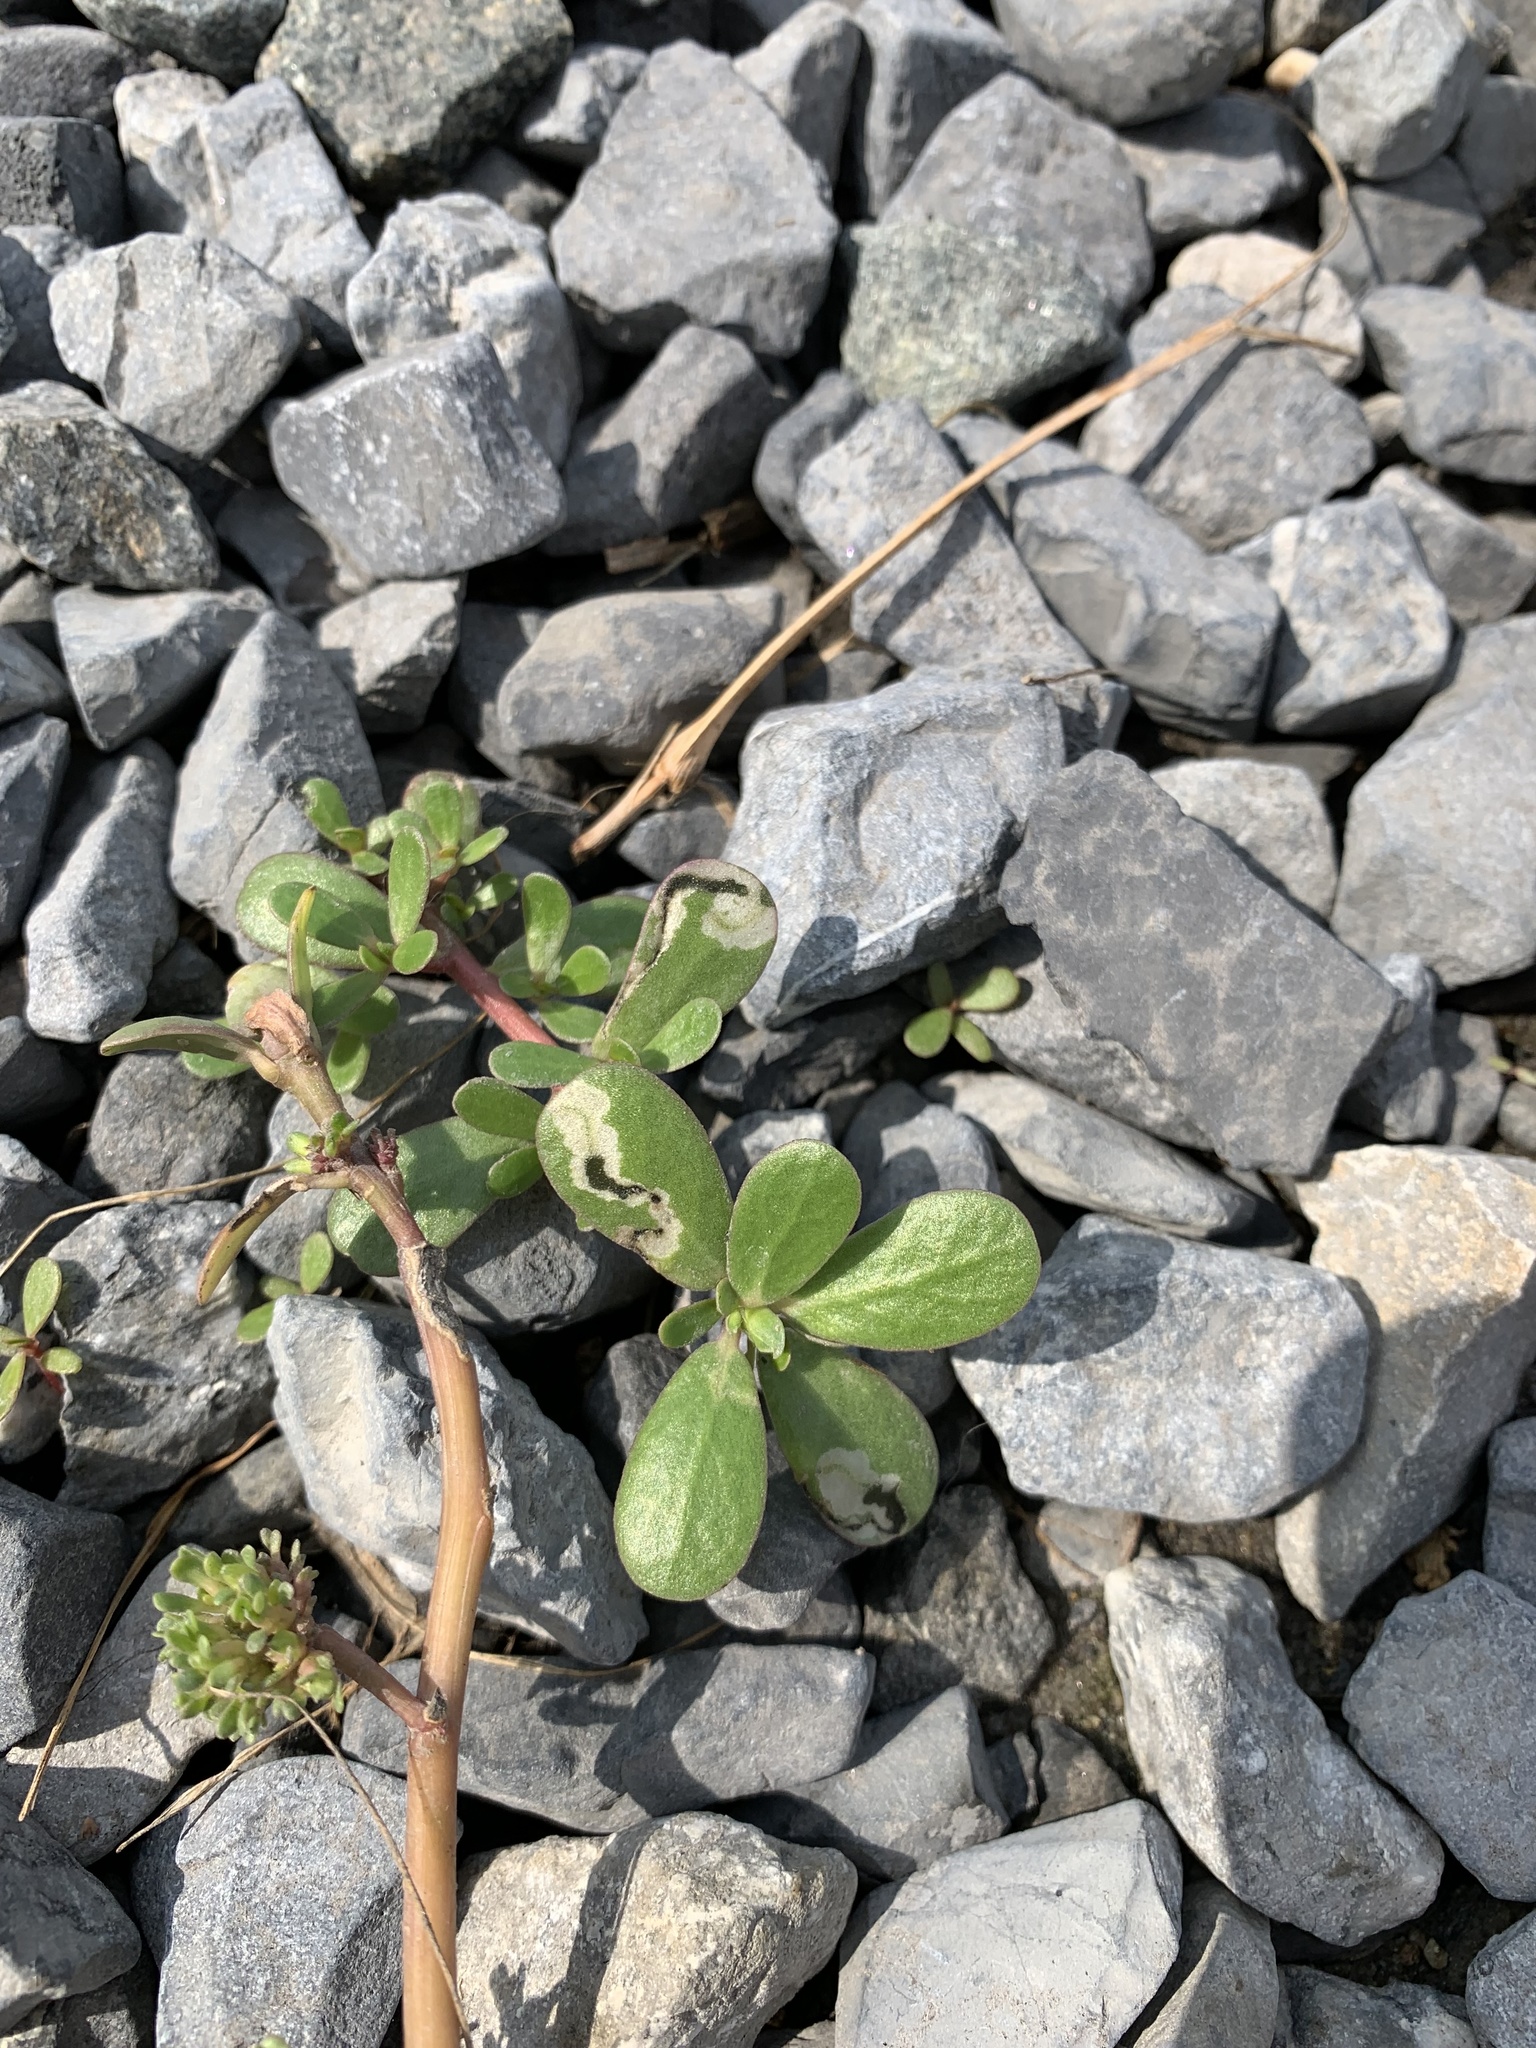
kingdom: Plantae
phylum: Tracheophyta
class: Magnoliopsida
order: Caryophyllales
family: Portulacaceae
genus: Portulaca
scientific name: Portulaca oleracea
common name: Common purslane
